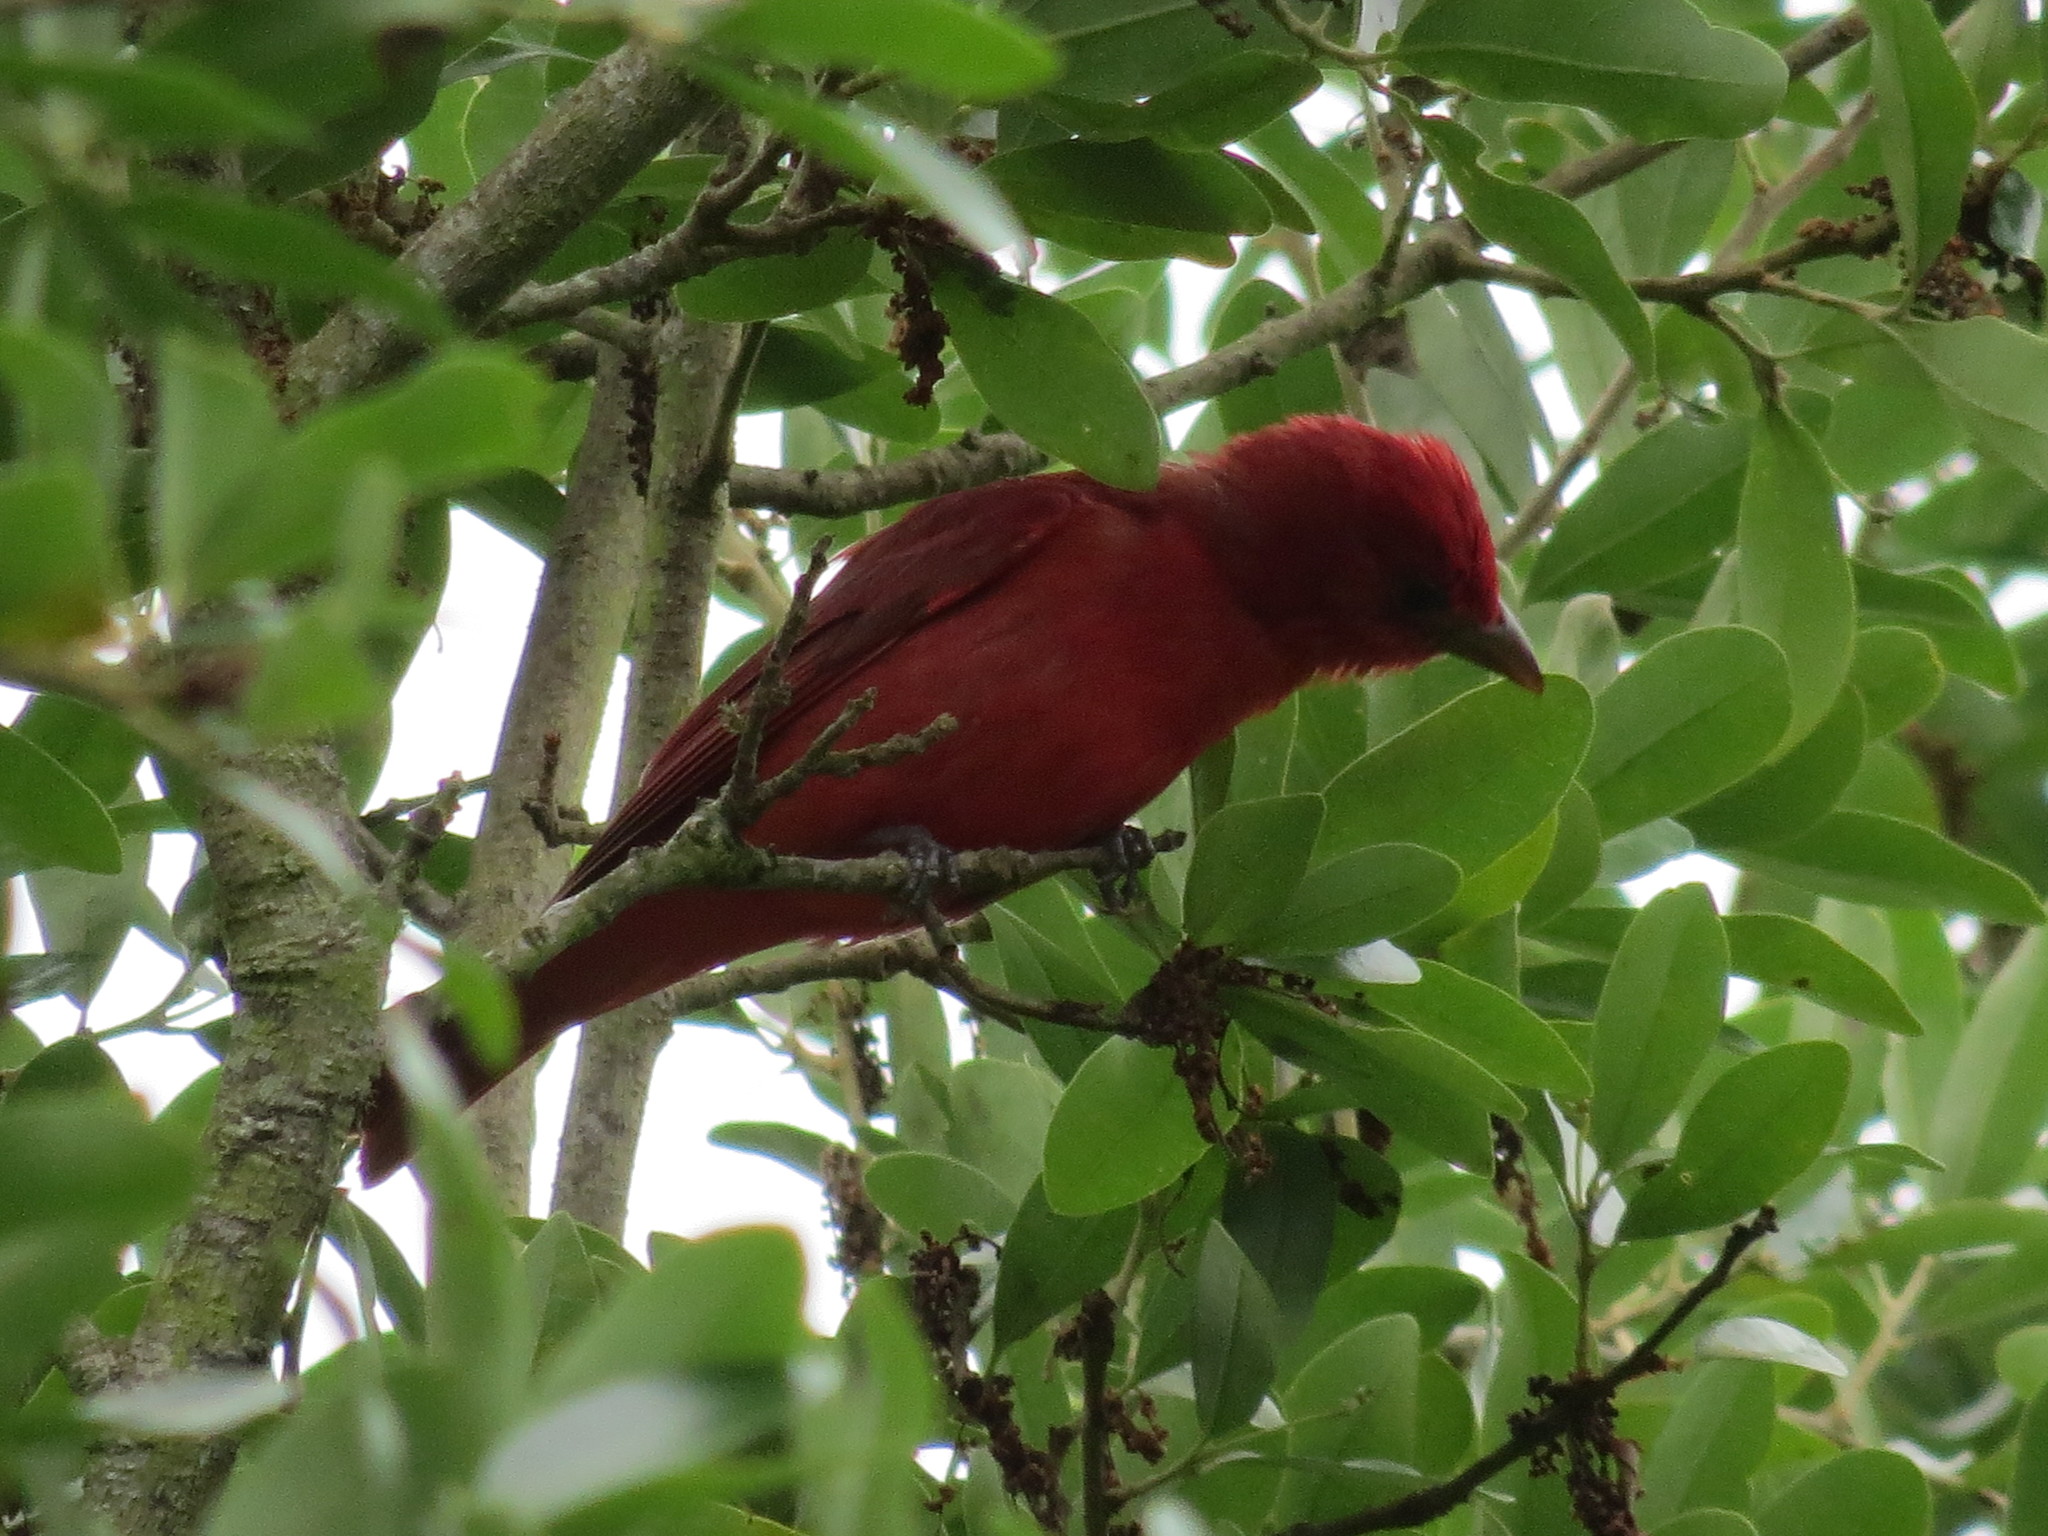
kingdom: Animalia
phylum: Chordata
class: Aves
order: Passeriformes
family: Cardinalidae
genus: Piranga
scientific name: Piranga rubra
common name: Summer tanager
